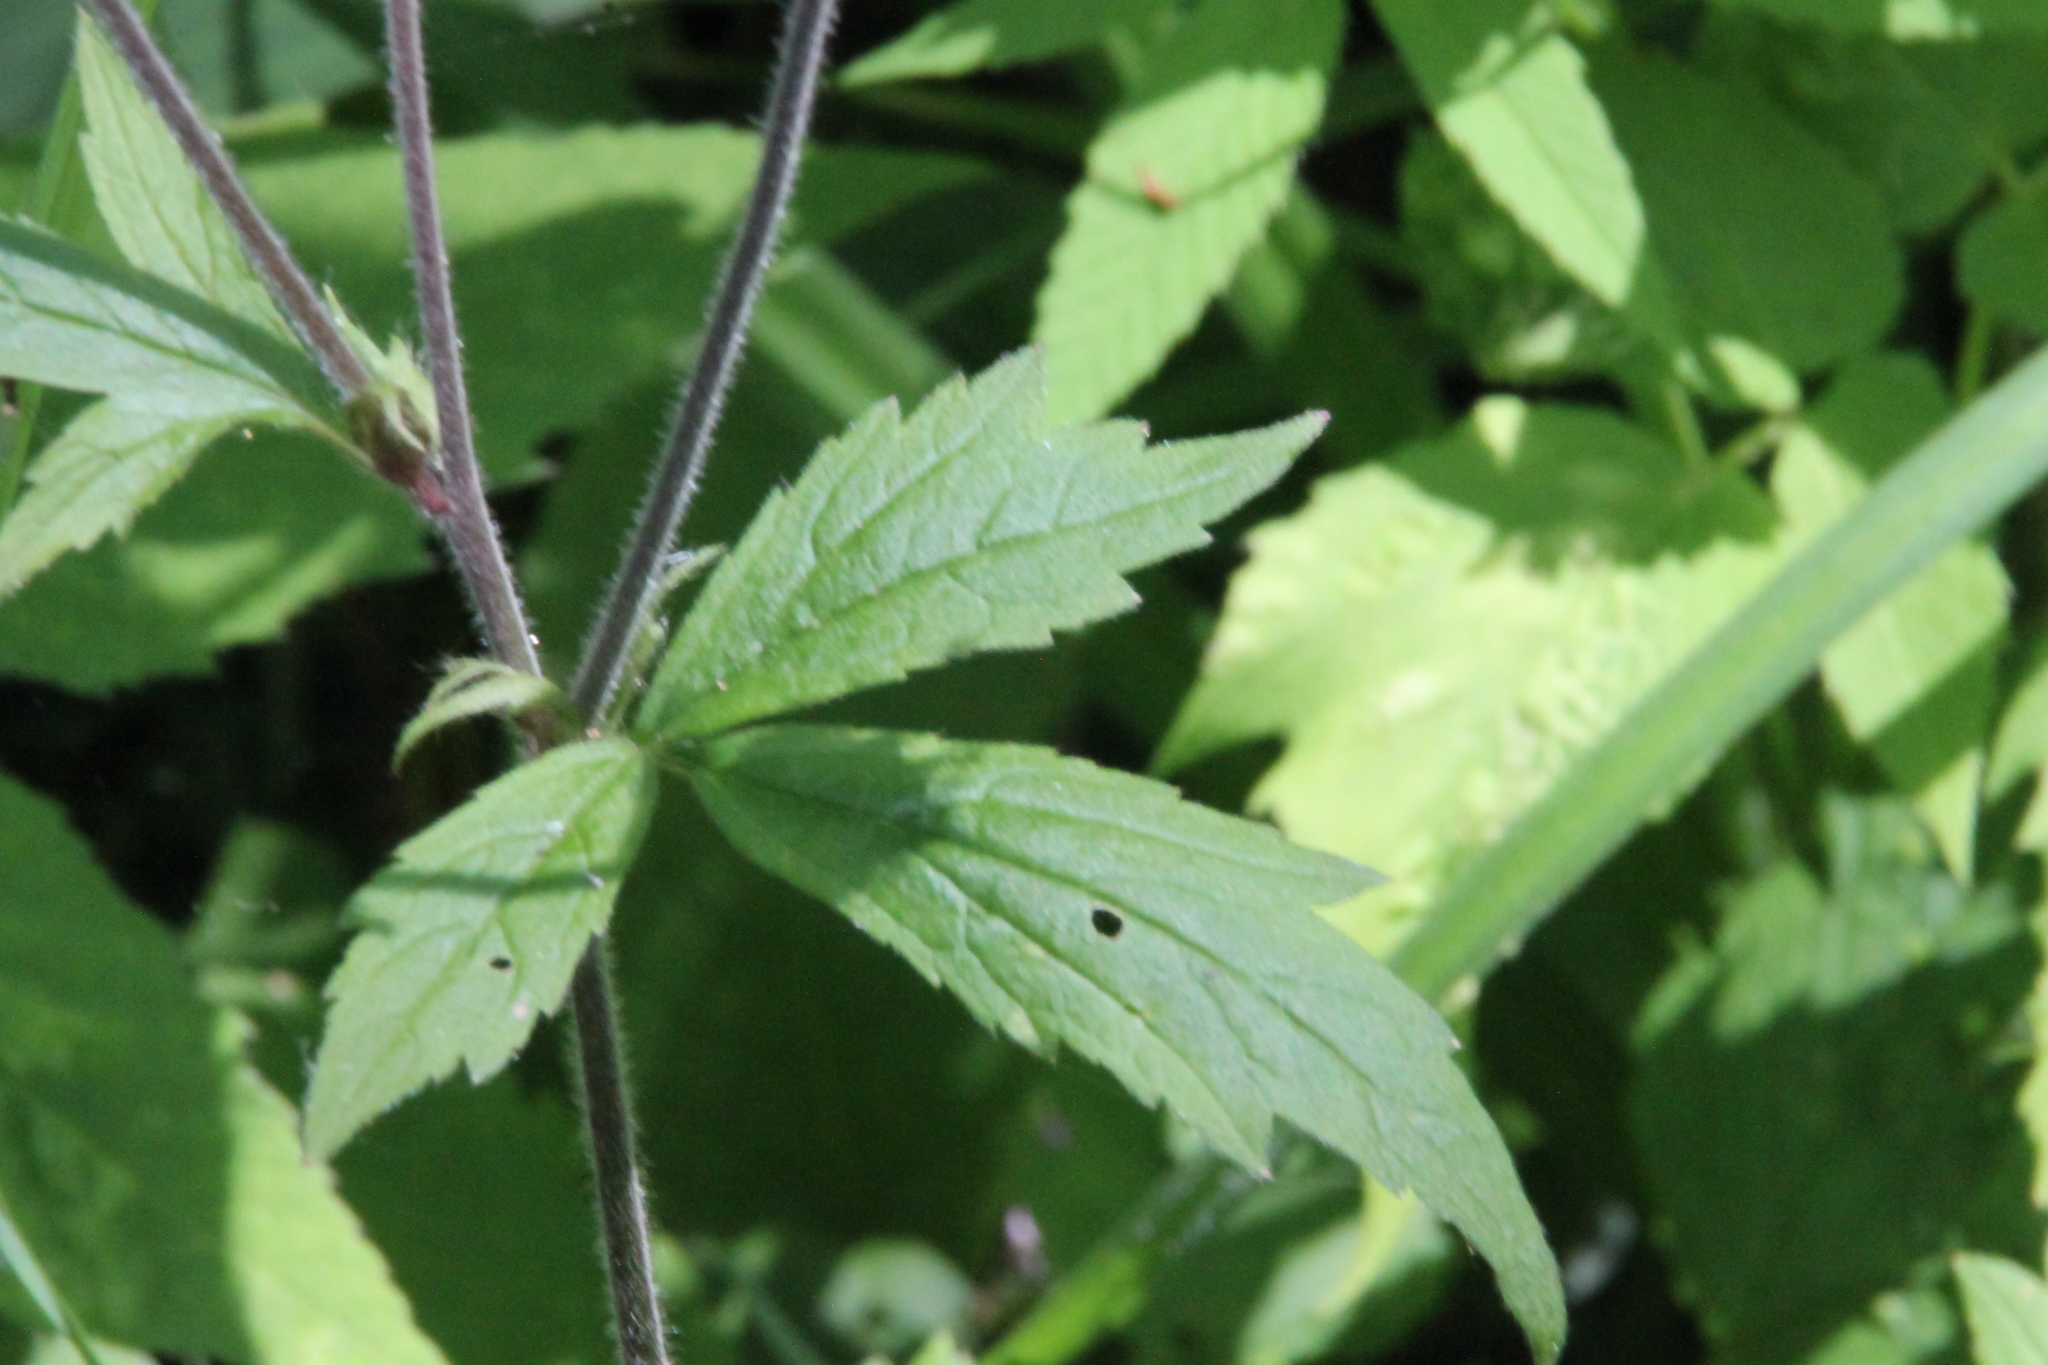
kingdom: Plantae
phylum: Tracheophyta
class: Magnoliopsida
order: Rosales
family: Rosaceae
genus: Geum
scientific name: Geum rivale
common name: Water avens
